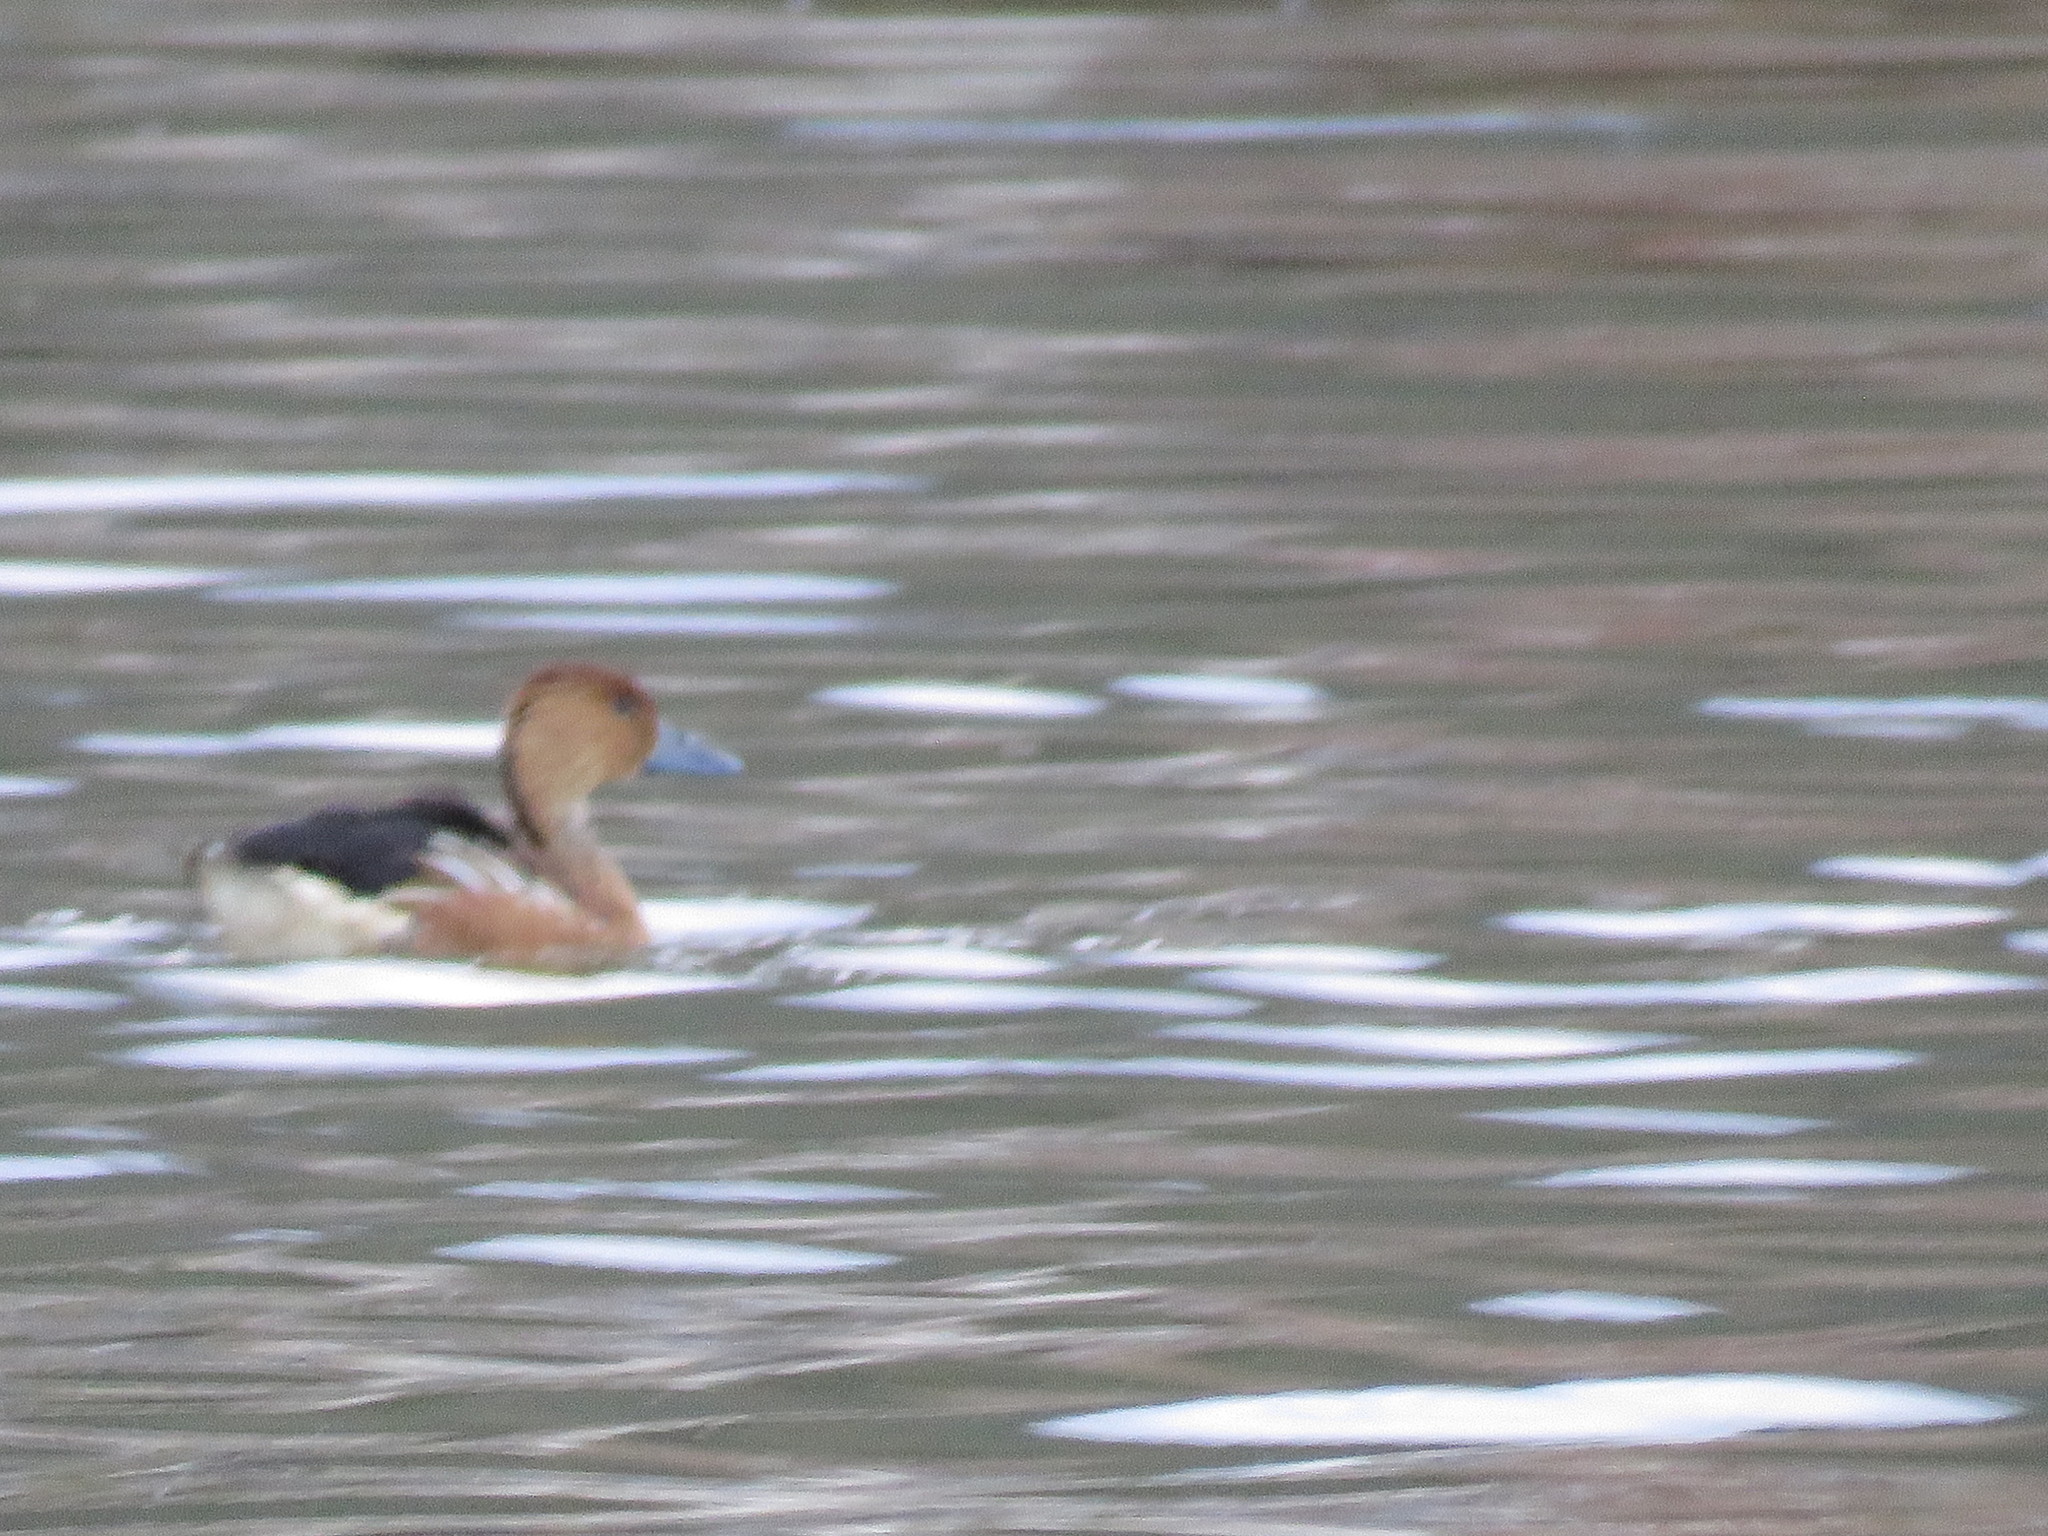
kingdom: Animalia
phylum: Chordata
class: Aves
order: Anseriformes
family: Anatidae
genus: Dendrocygna
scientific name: Dendrocygna bicolor
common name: Fulvous whistling duck
